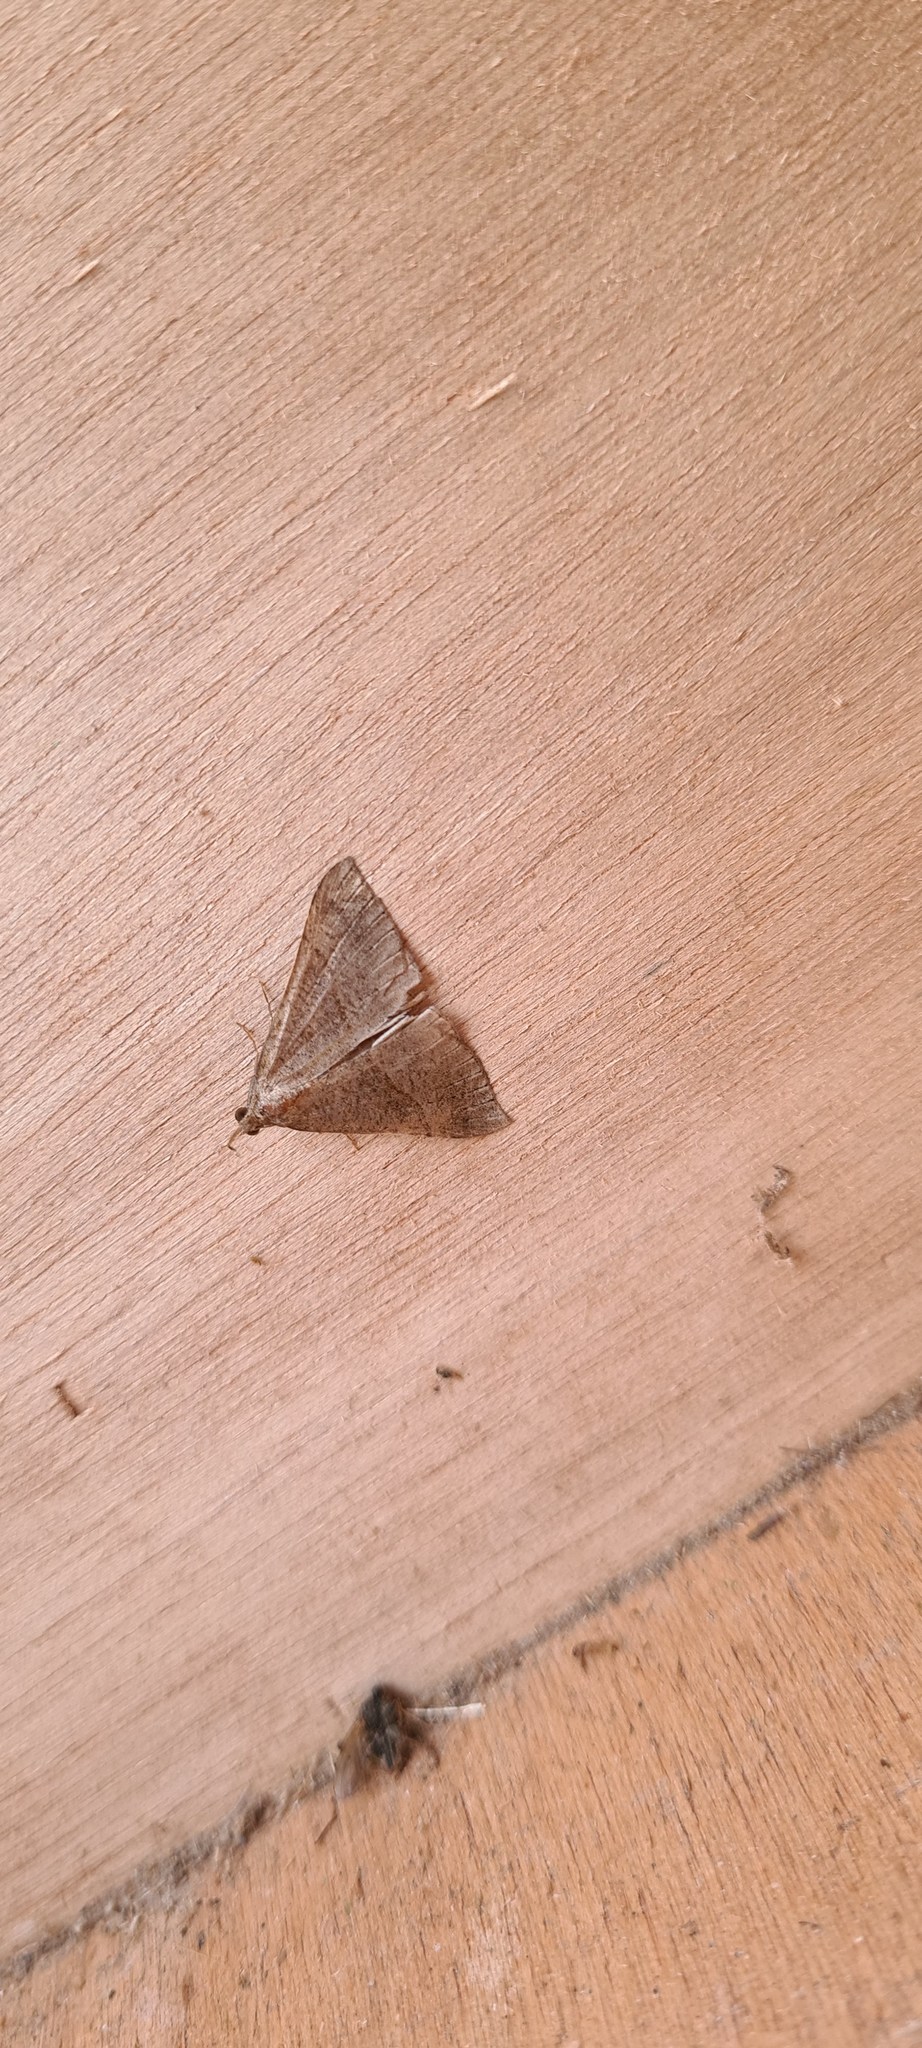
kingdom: Animalia
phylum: Arthropoda
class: Insecta
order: Lepidoptera
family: Erebidae
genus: Hypena
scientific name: Hypena proboscidalis
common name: Snout
